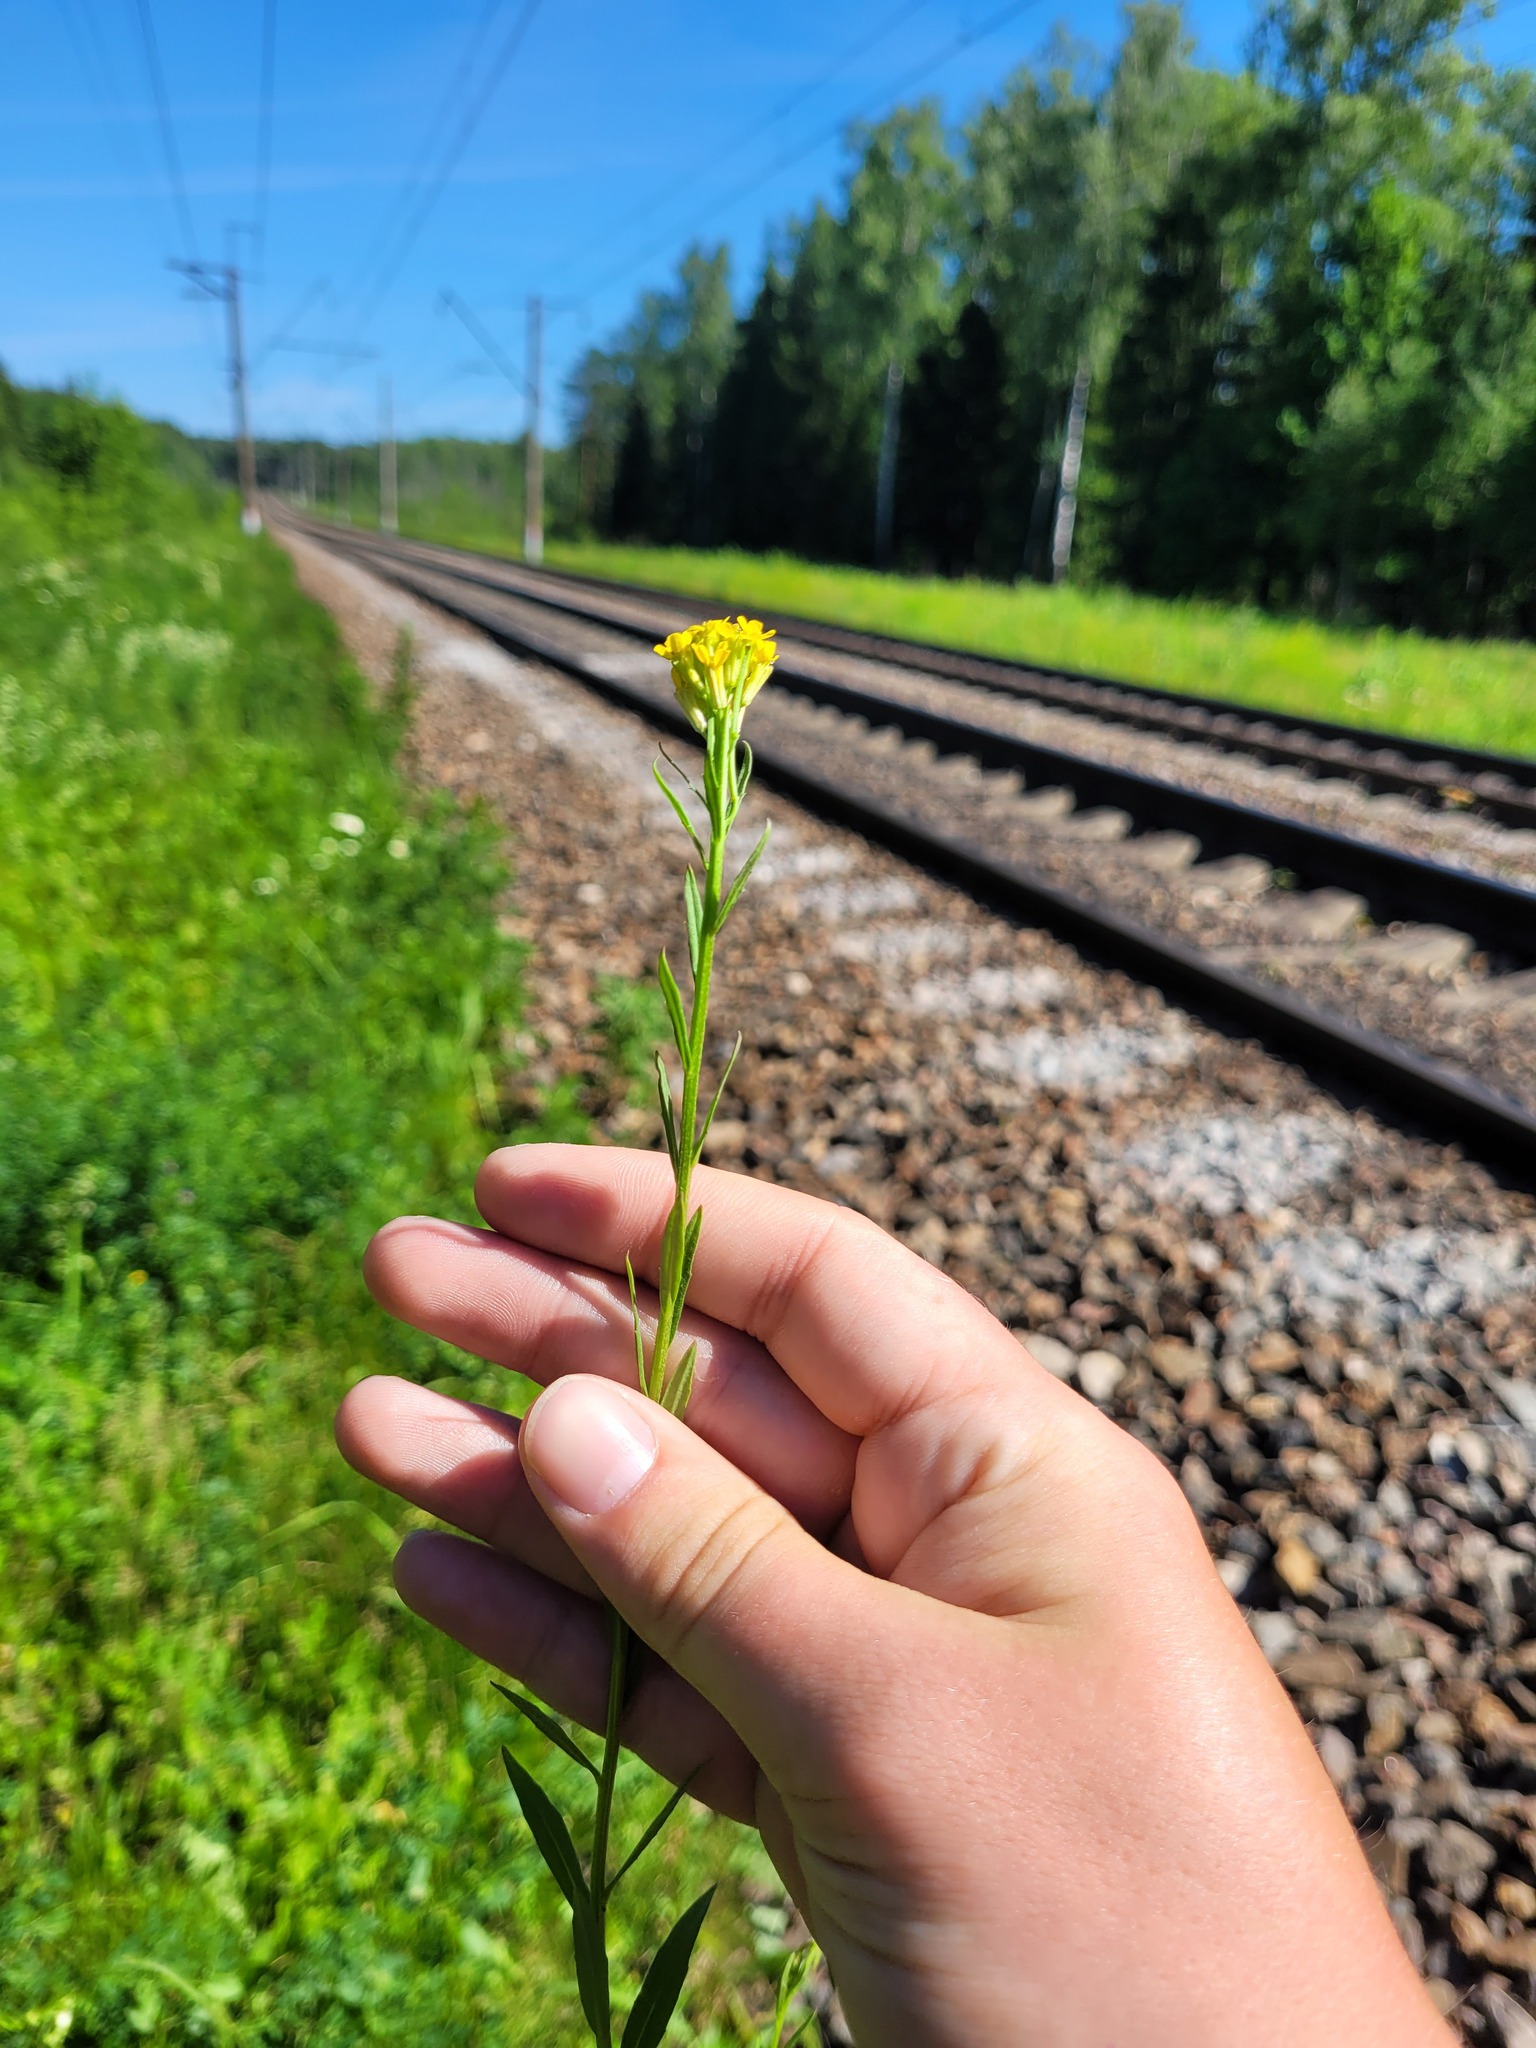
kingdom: Plantae
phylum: Tracheophyta
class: Magnoliopsida
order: Brassicales
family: Brassicaceae
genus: Erysimum
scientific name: Erysimum hieraciifolium
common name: European wallflower
